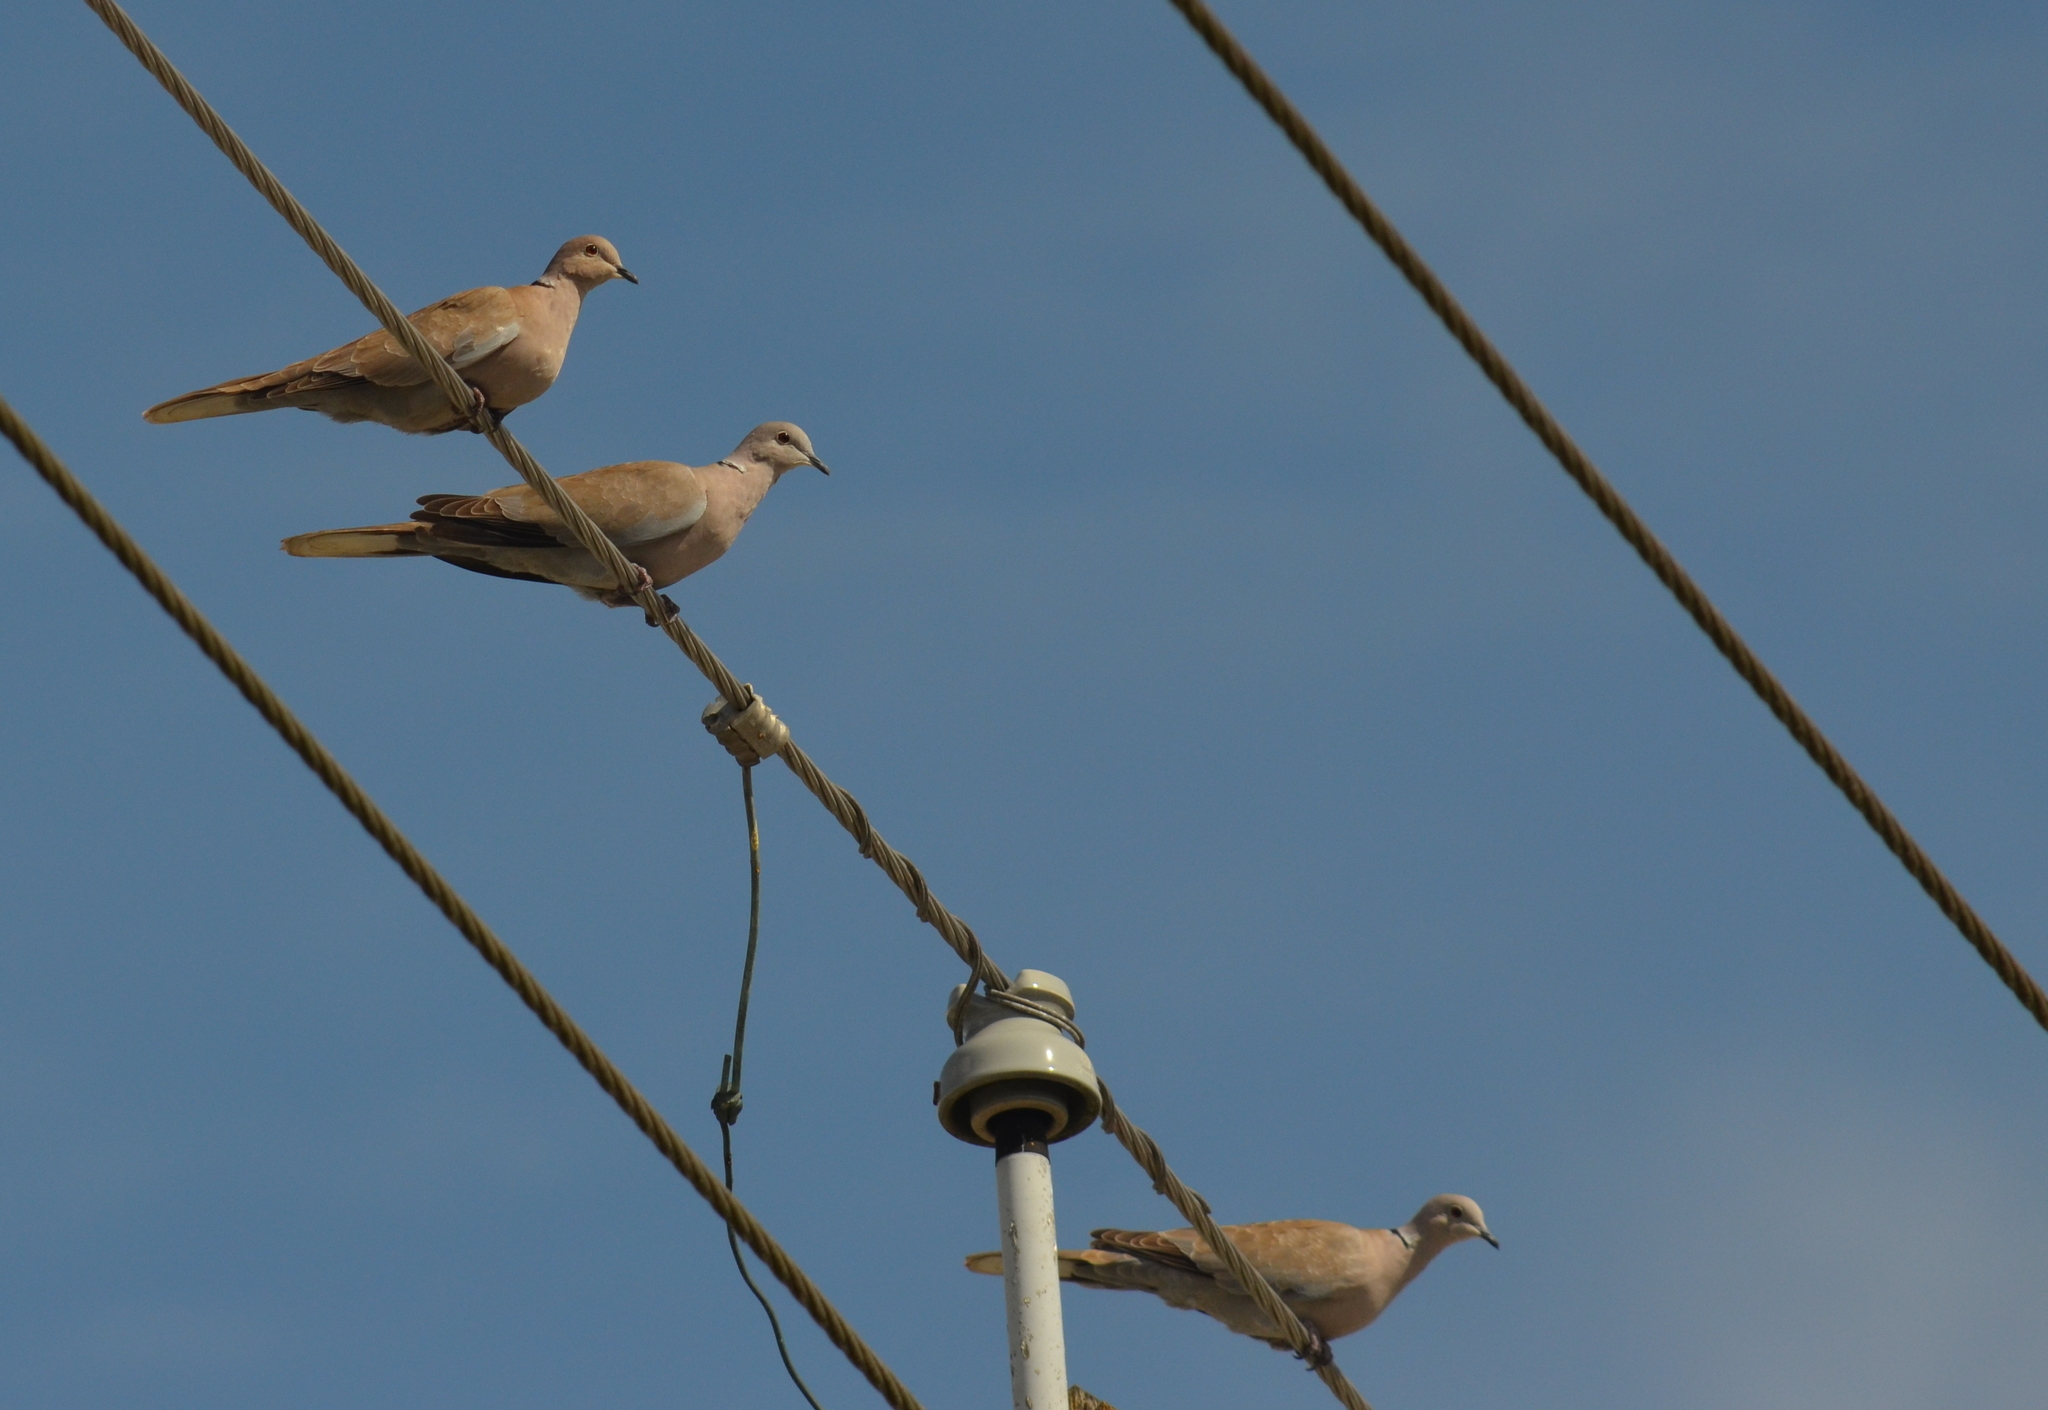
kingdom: Animalia
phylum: Chordata
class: Aves
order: Columbiformes
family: Columbidae
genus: Streptopelia
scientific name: Streptopelia decaocto
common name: Eurasian collared dove
